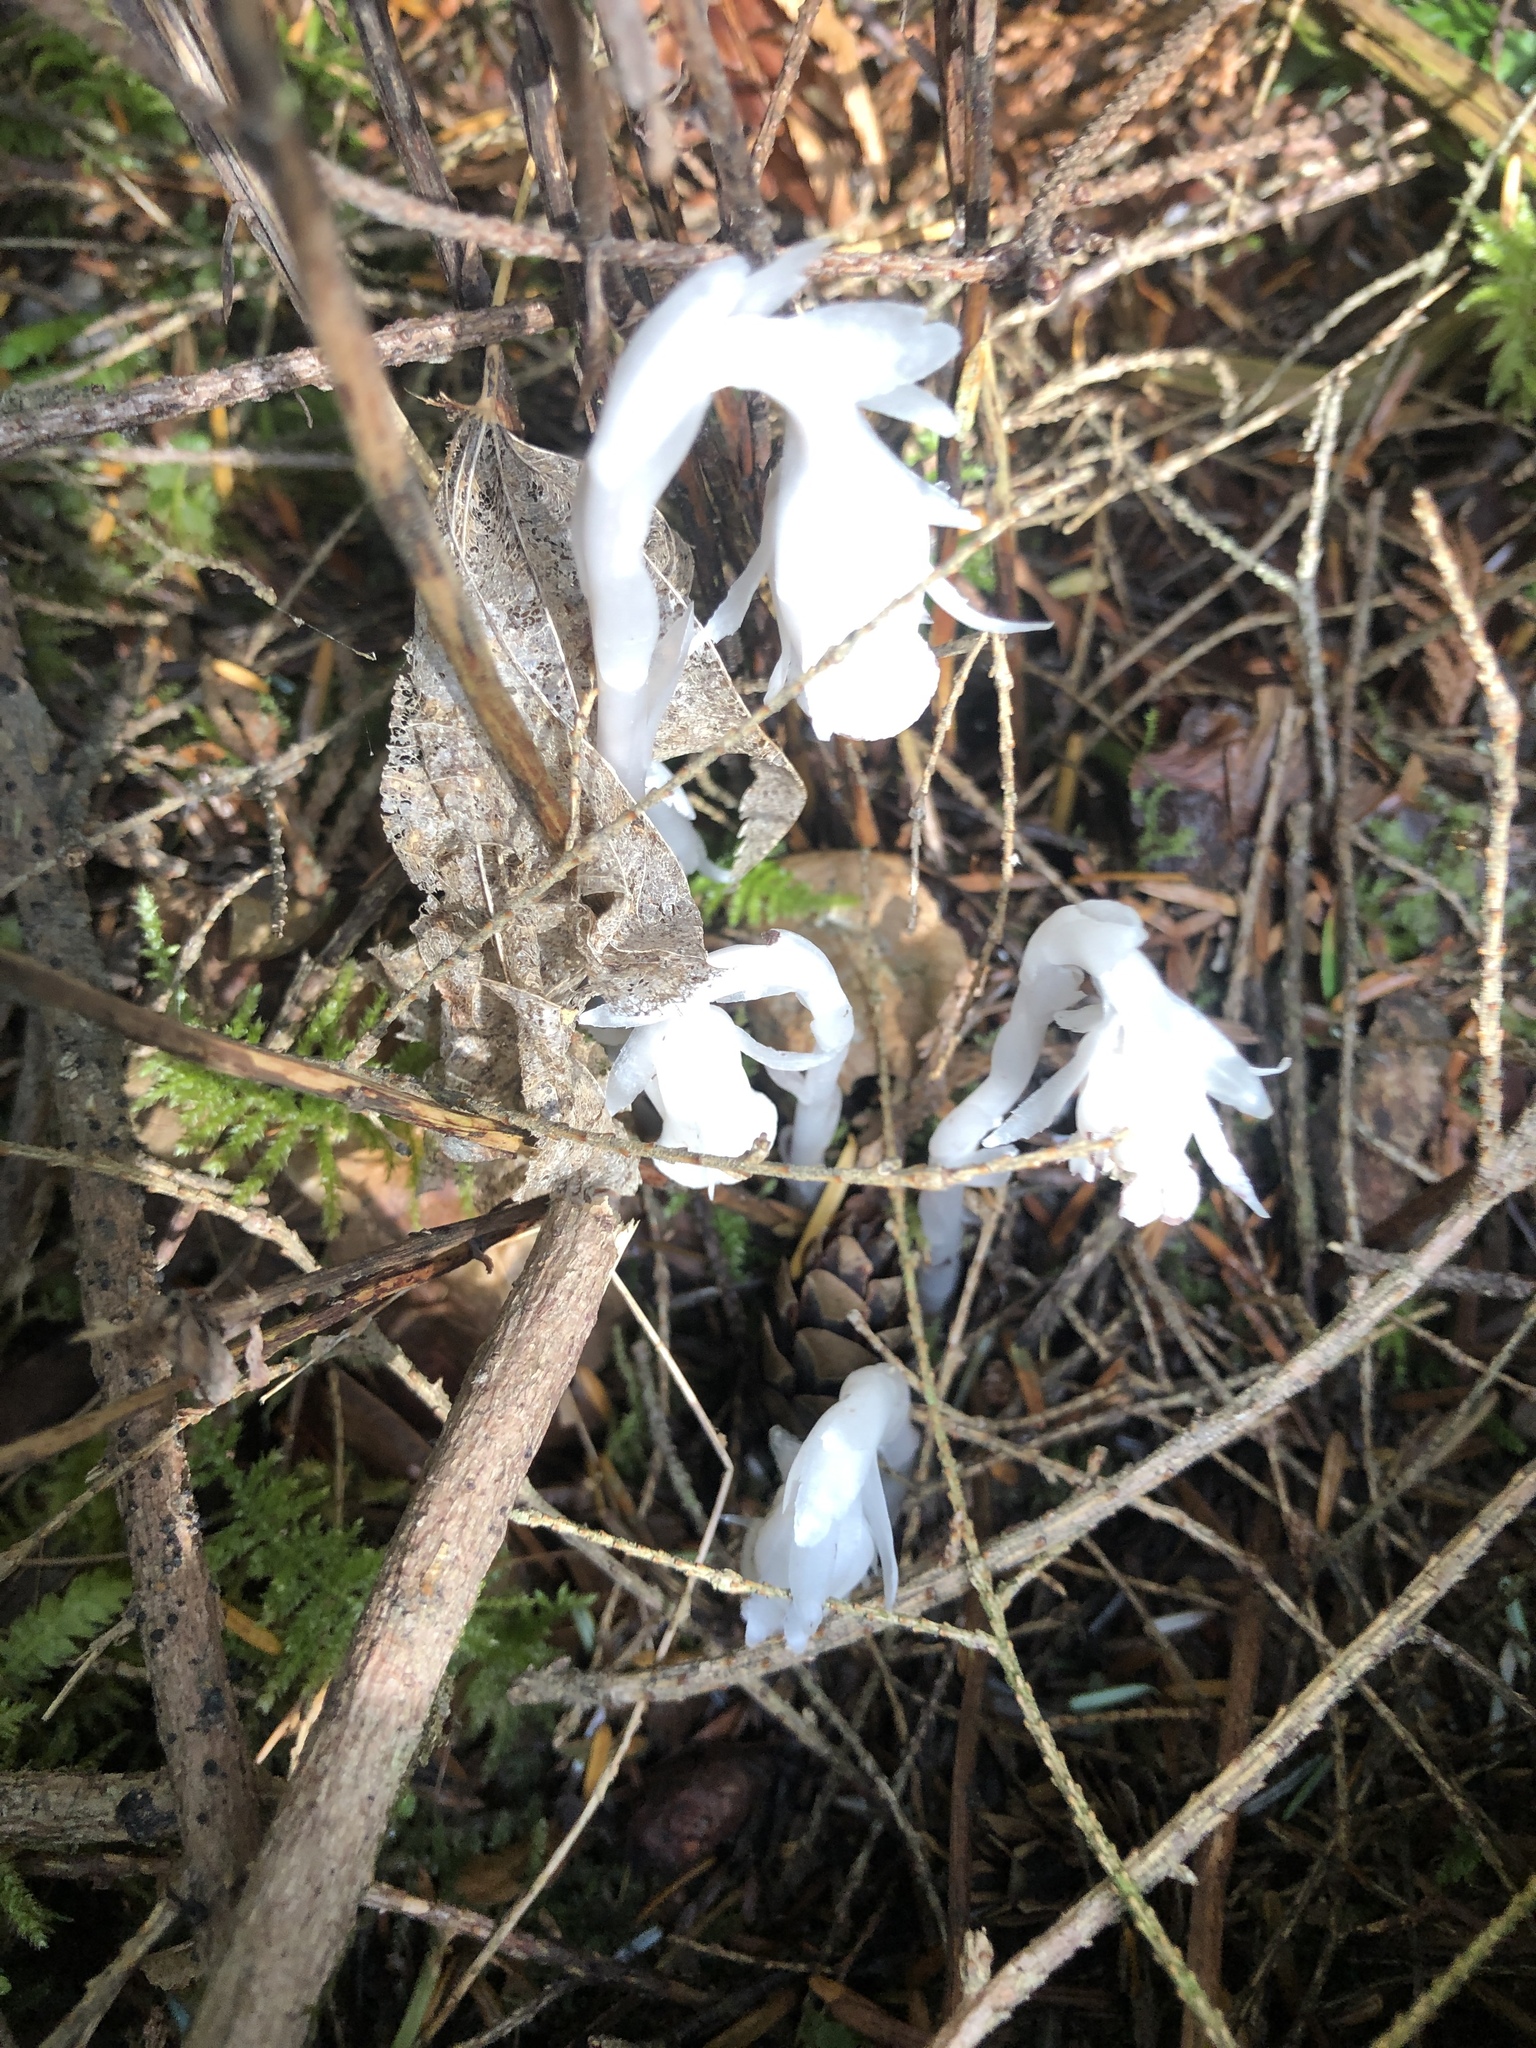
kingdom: Plantae
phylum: Tracheophyta
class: Magnoliopsida
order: Ericales
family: Ericaceae
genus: Monotropa
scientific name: Monotropa uniflora
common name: Convulsion root
